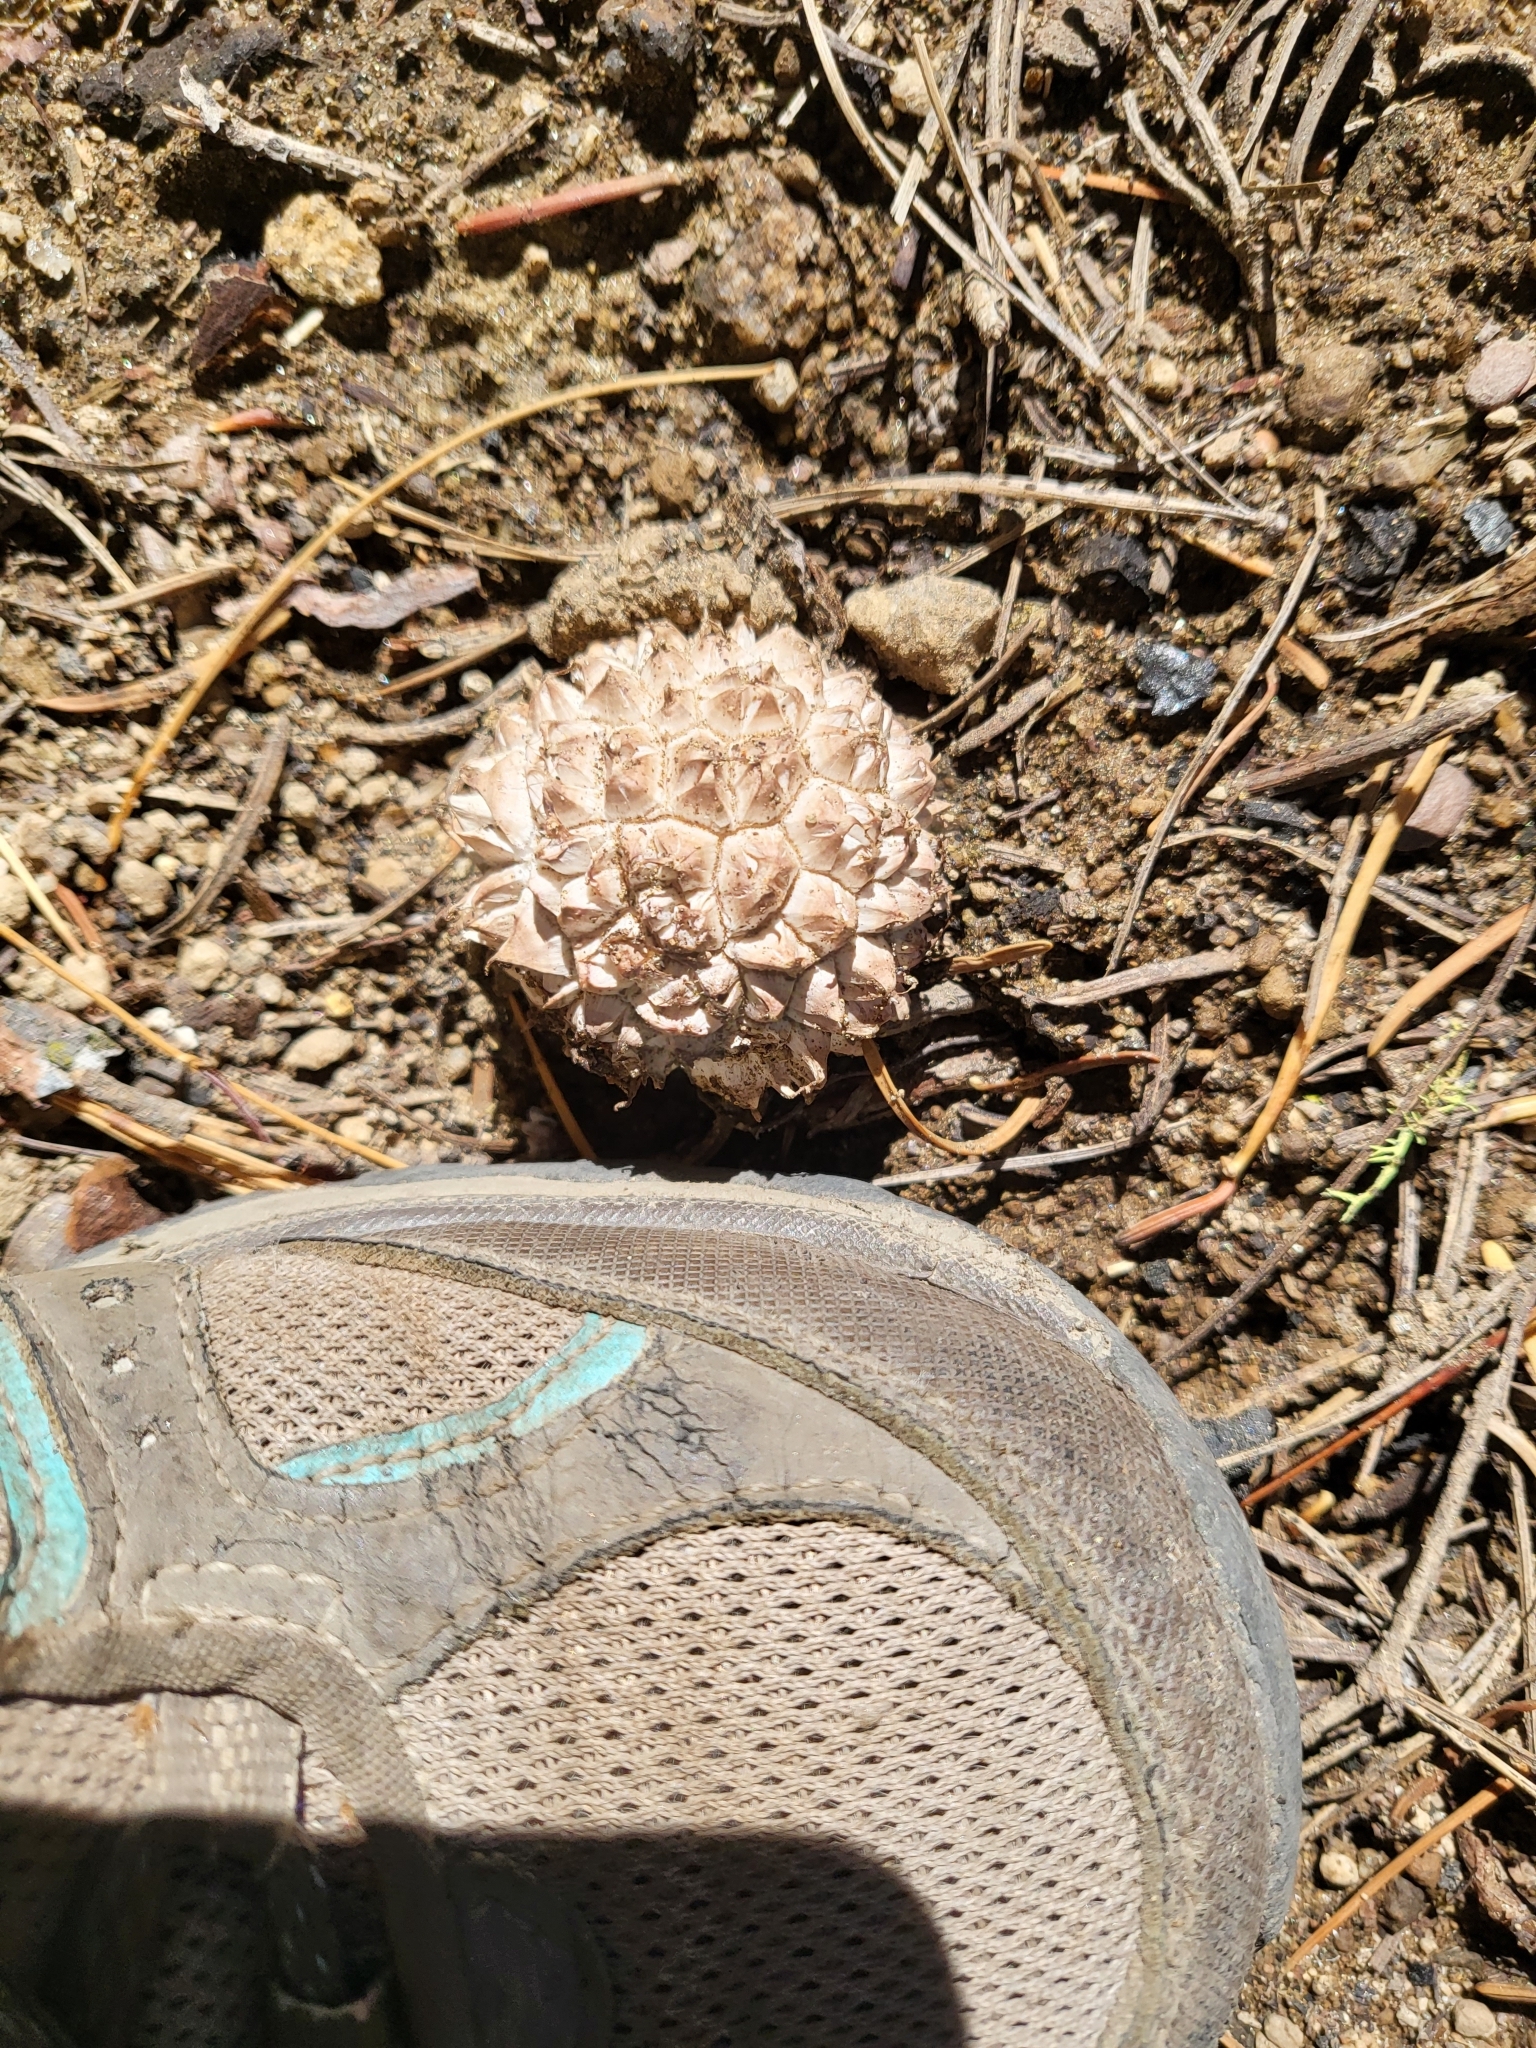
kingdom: Fungi
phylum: Basidiomycota
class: Agaricomycetes
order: Agaricales
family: Lycoperdaceae
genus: Calvatia
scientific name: Calvatia sculpta
